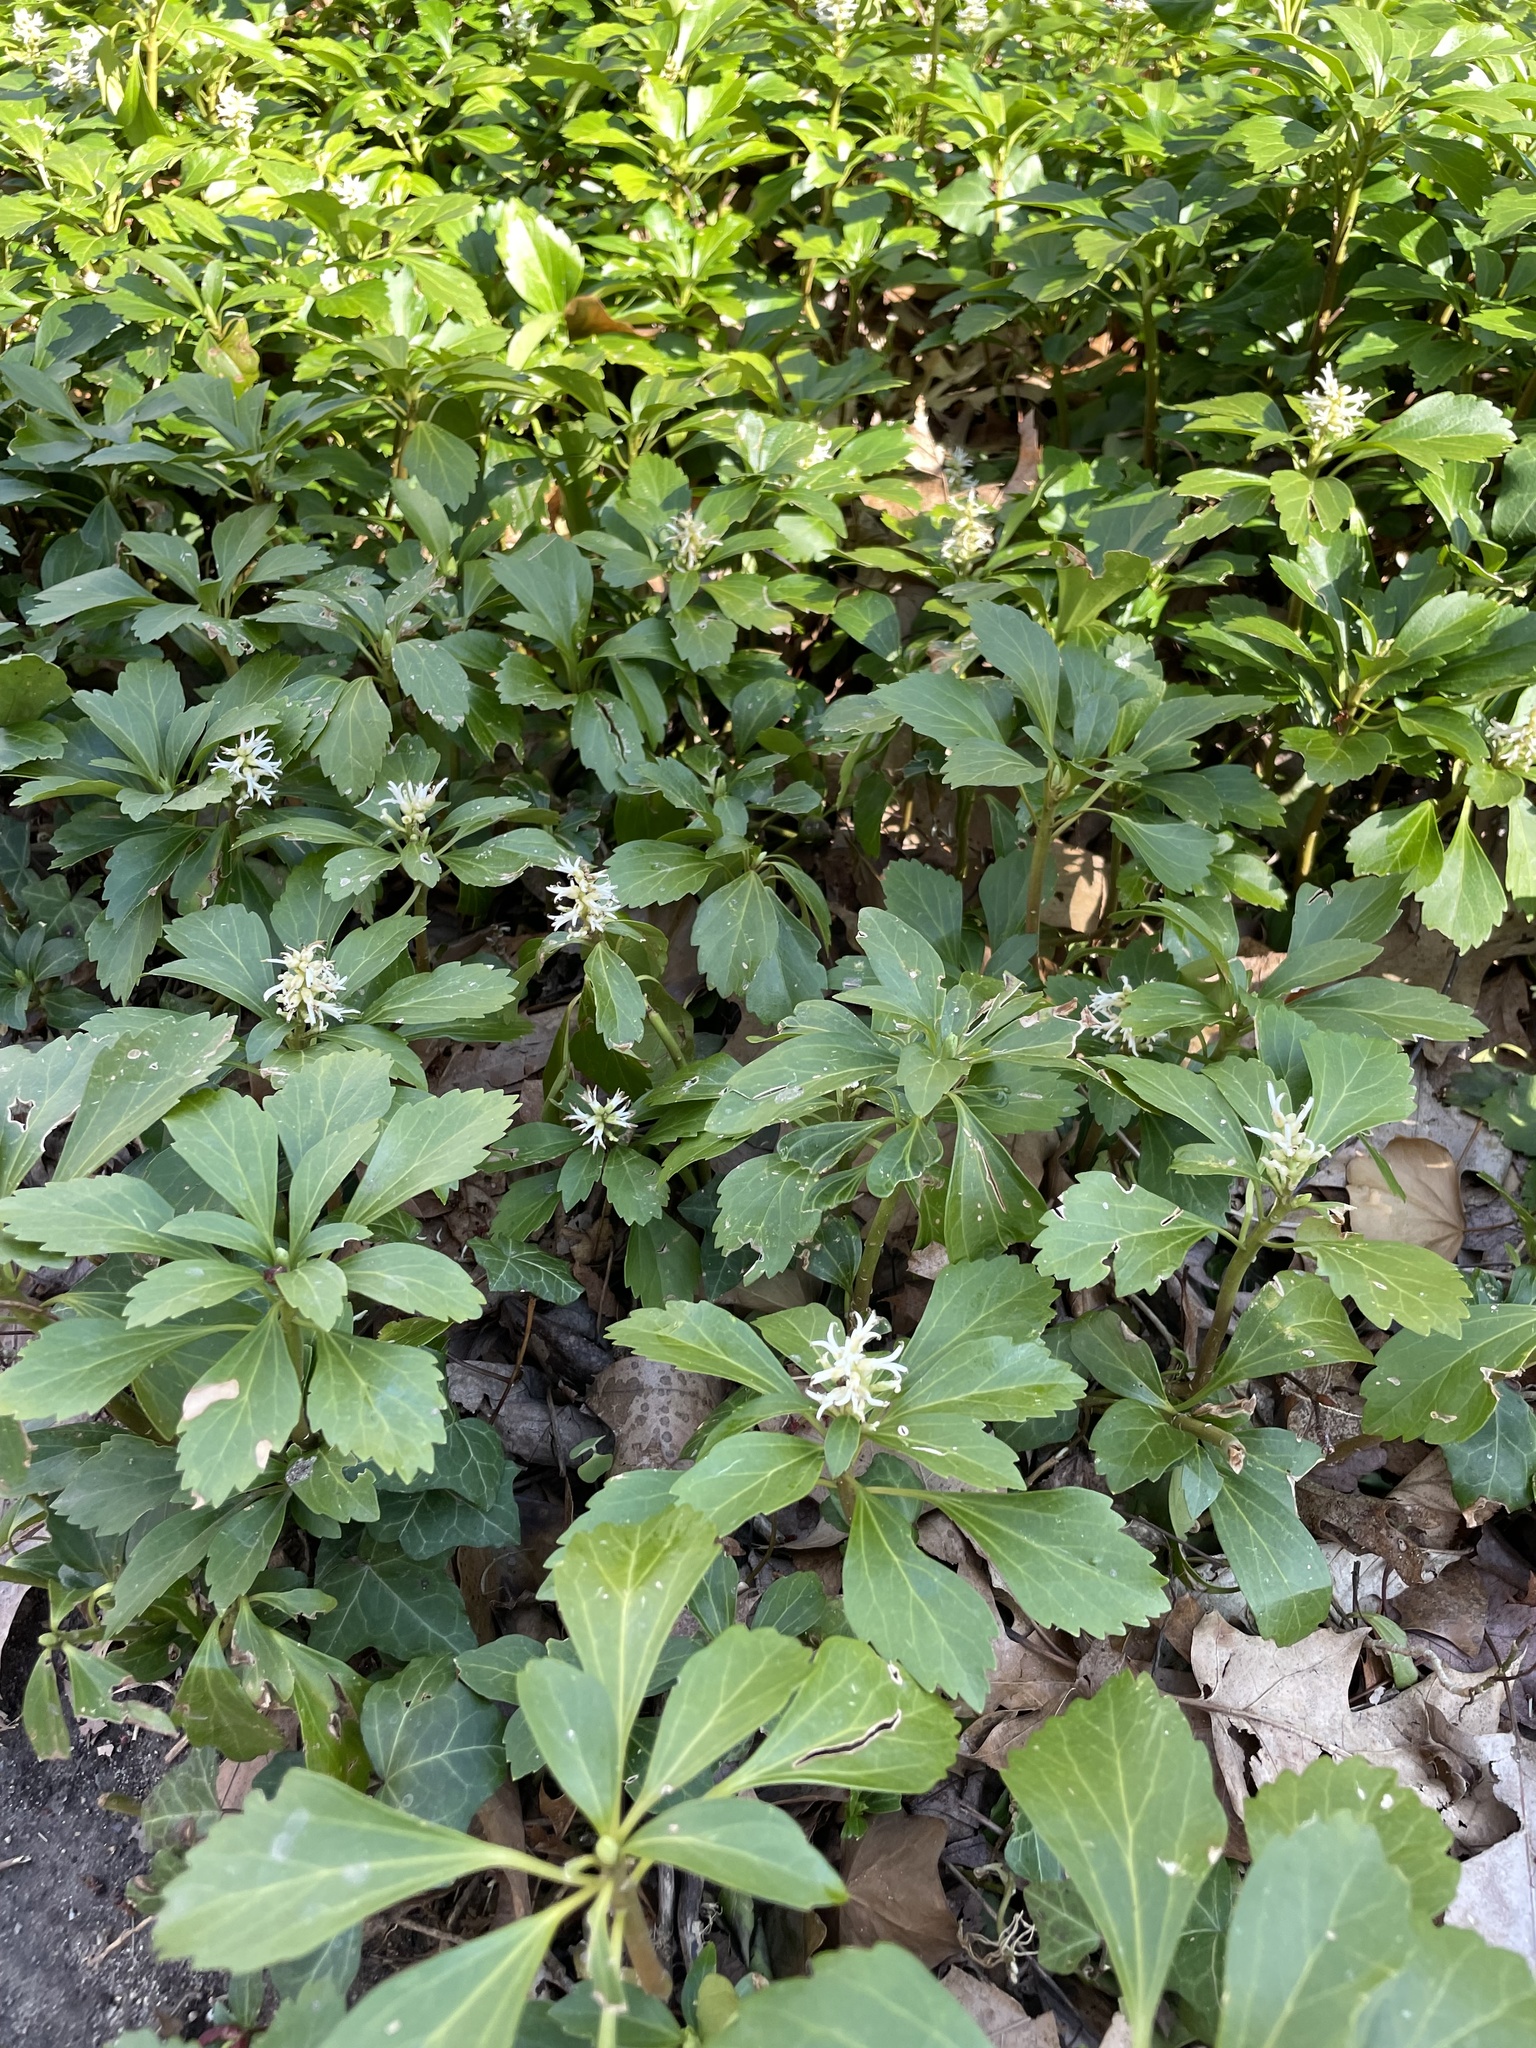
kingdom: Plantae
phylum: Tracheophyta
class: Magnoliopsida
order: Buxales
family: Buxaceae
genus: Pachysandra
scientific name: Pachysandra terminalis
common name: Japanese pachysandra
